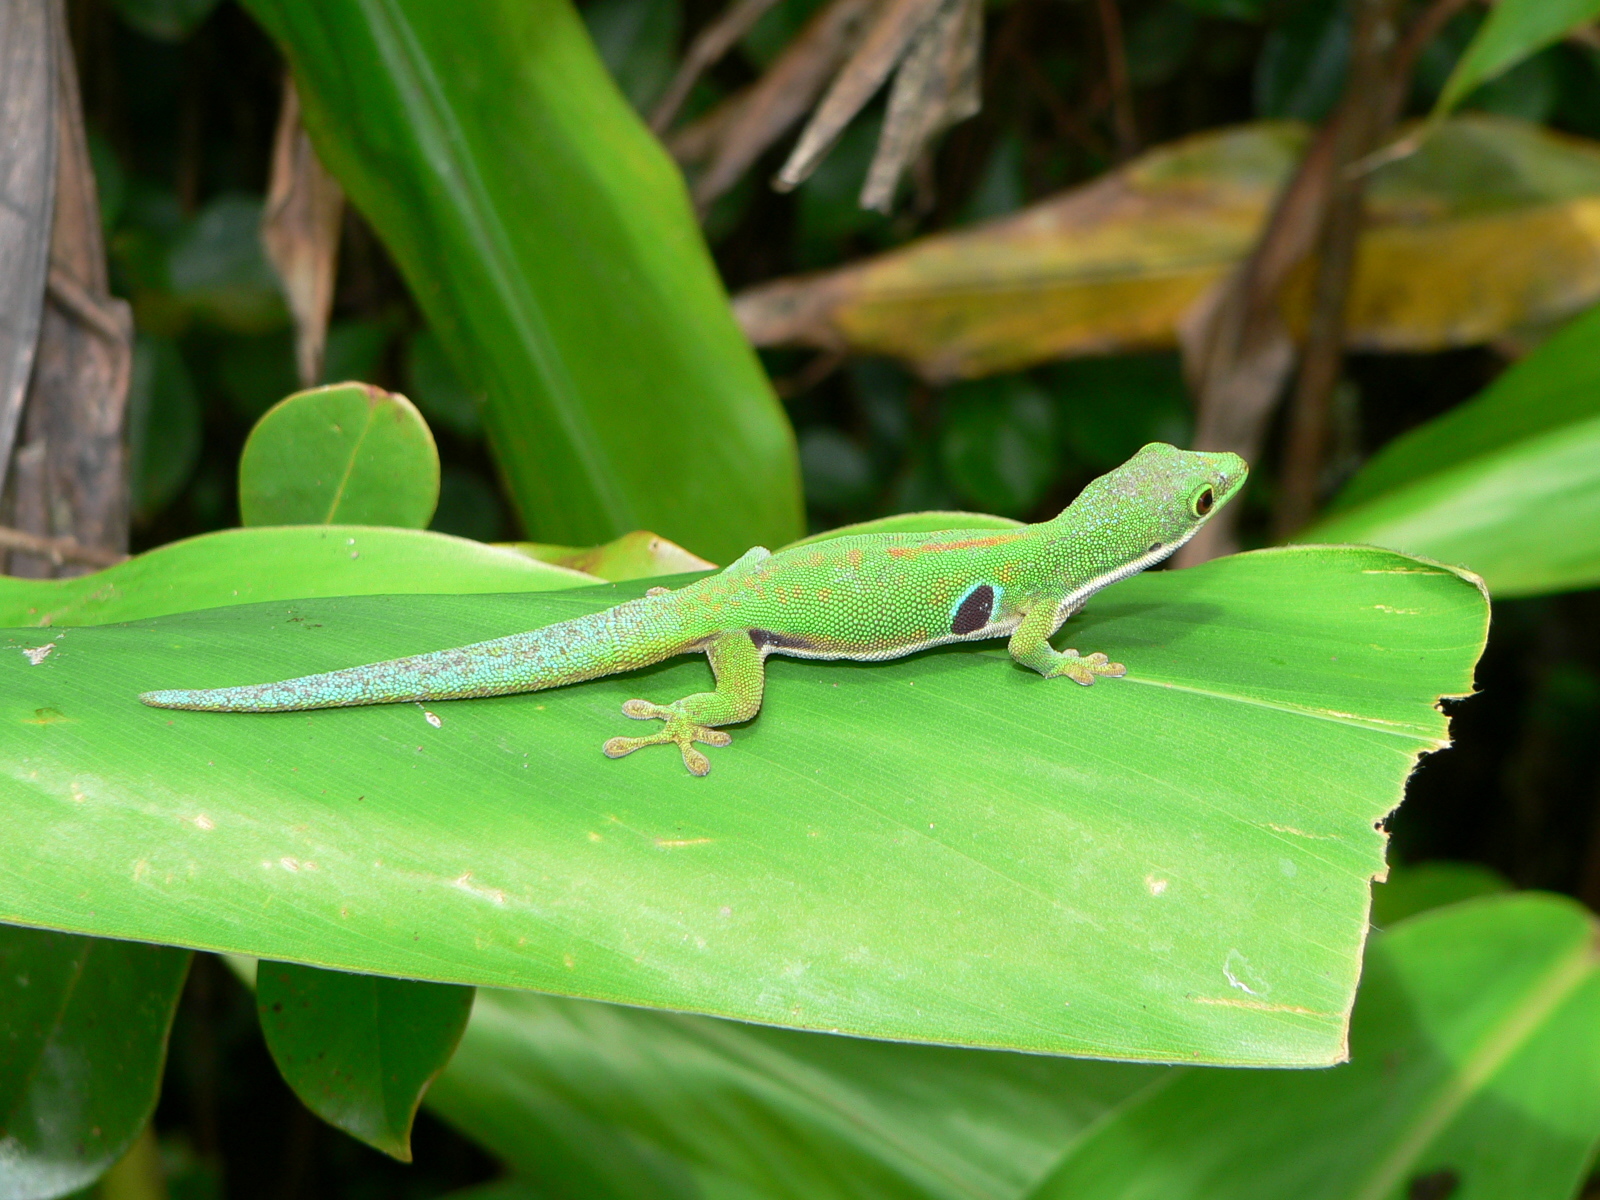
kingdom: Animalia
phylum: Chordata
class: Squamata
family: Gekkonidae
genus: Phelsuma
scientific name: Phelsuma quadriocellata
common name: Peacock day gecko
